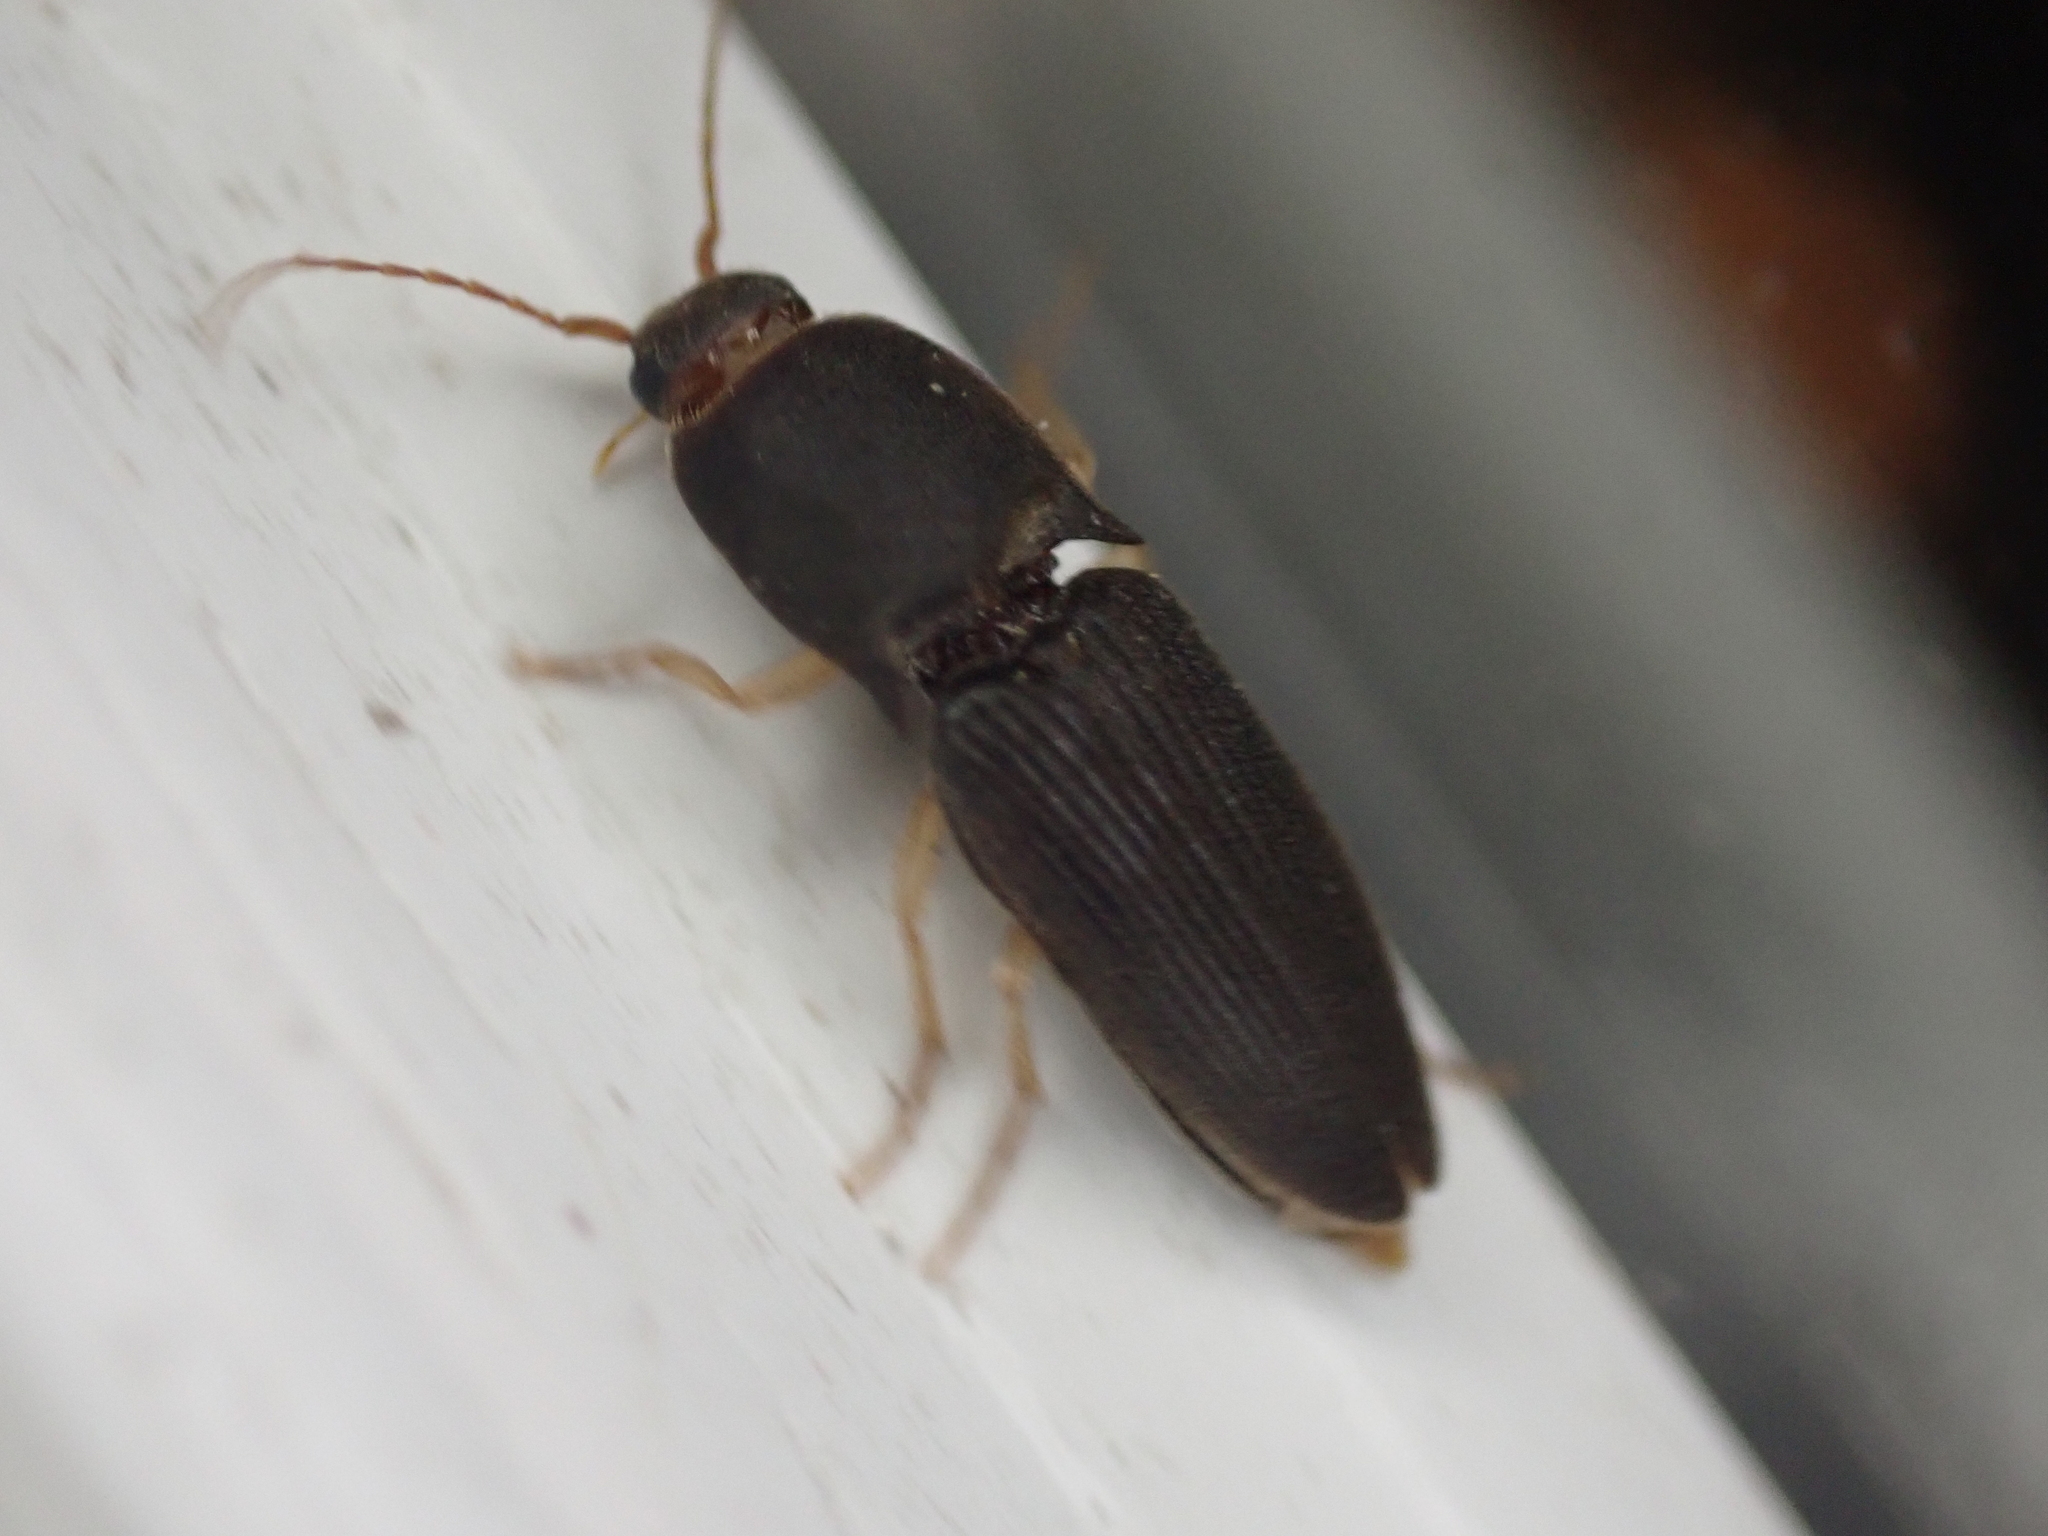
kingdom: Animalia
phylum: Arthropoda
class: Insecta
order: Coleoptera
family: Elateridae
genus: Heteroderes
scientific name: Heteroderes amplicollis
